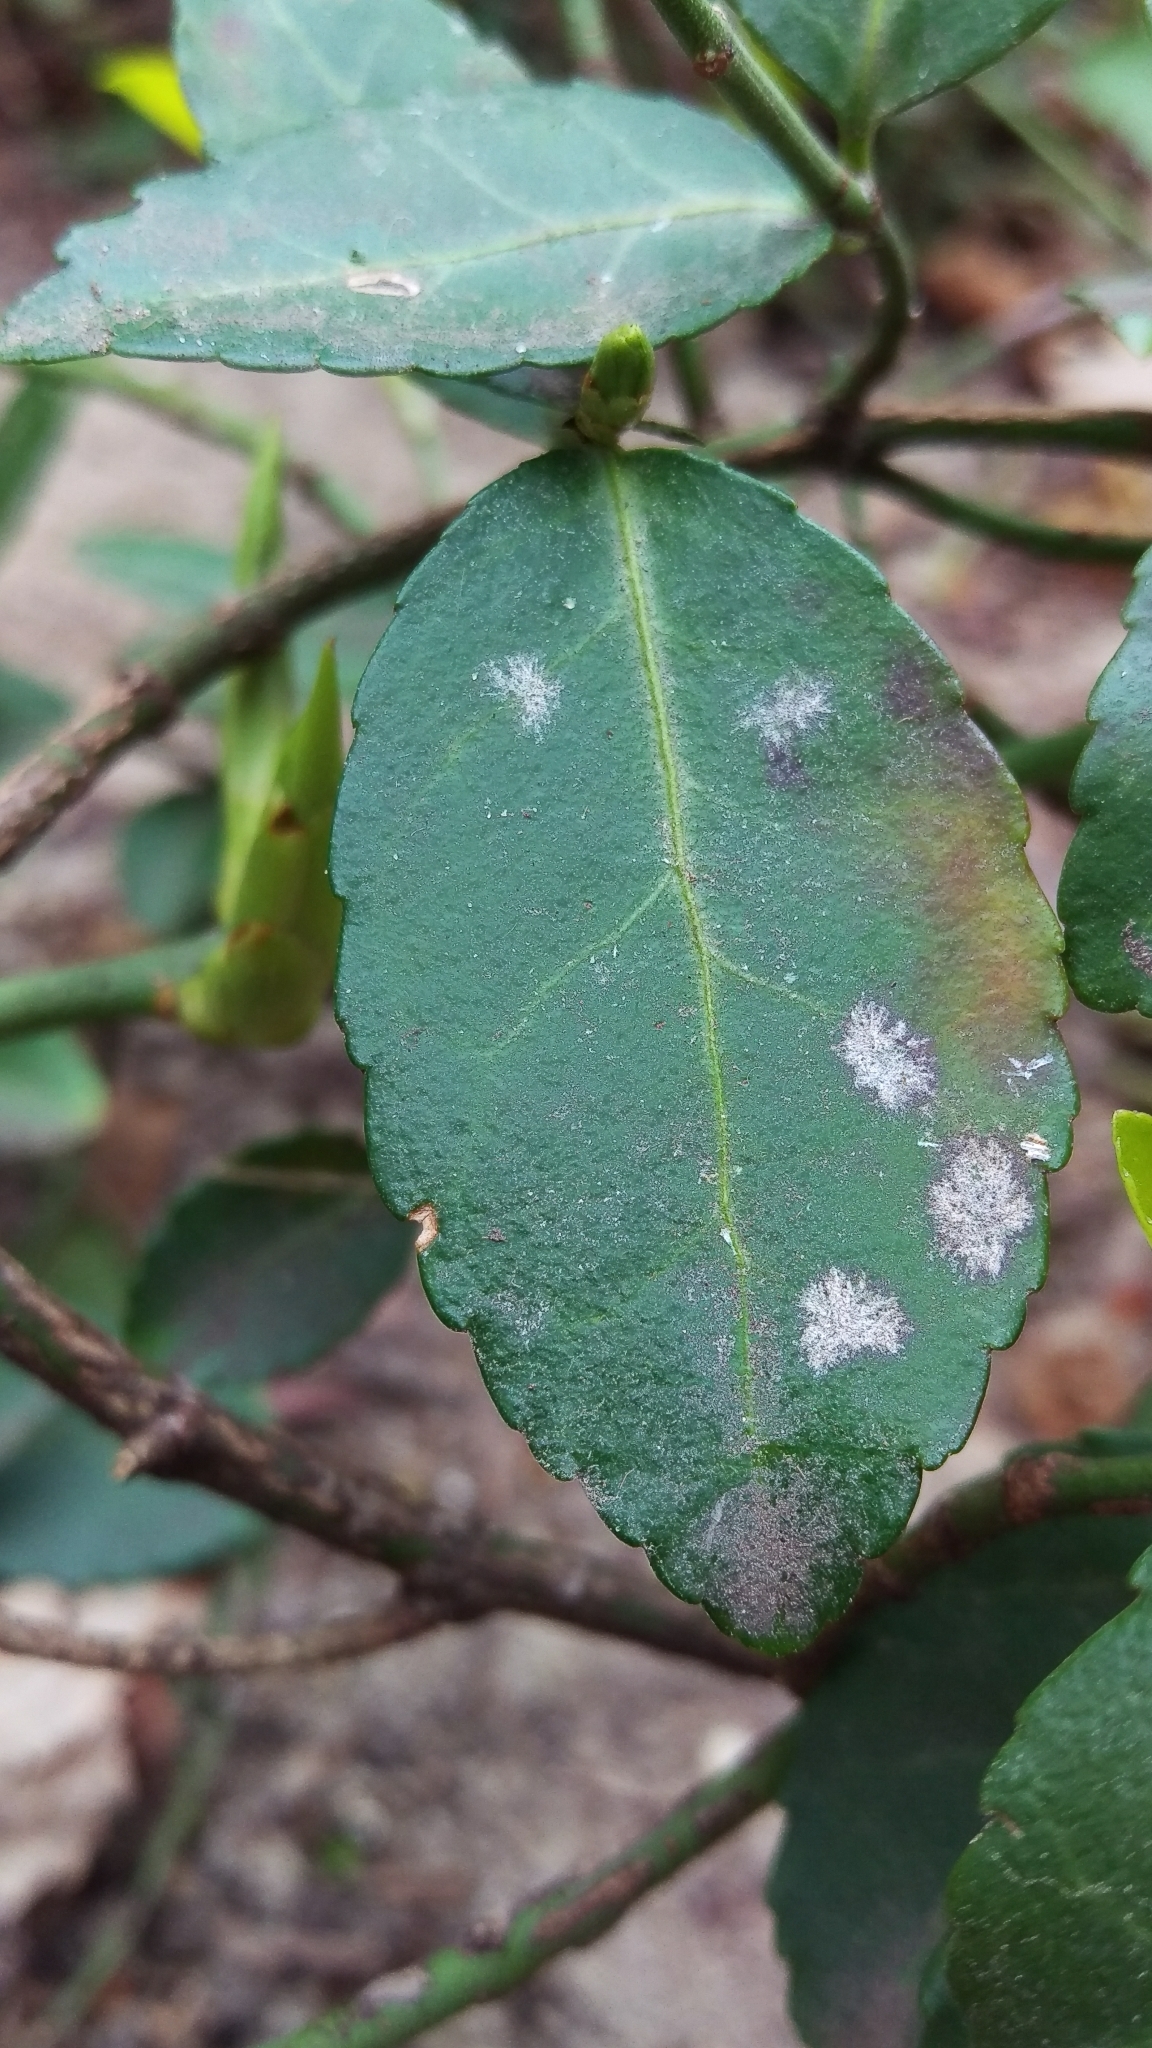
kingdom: Fungi
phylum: Ascomycota
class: Leotiomycetes
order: Helotiales
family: Erysiphaceae
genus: Erysiphe
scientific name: Erysiphe euonymicola
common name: Spindletree mildew
